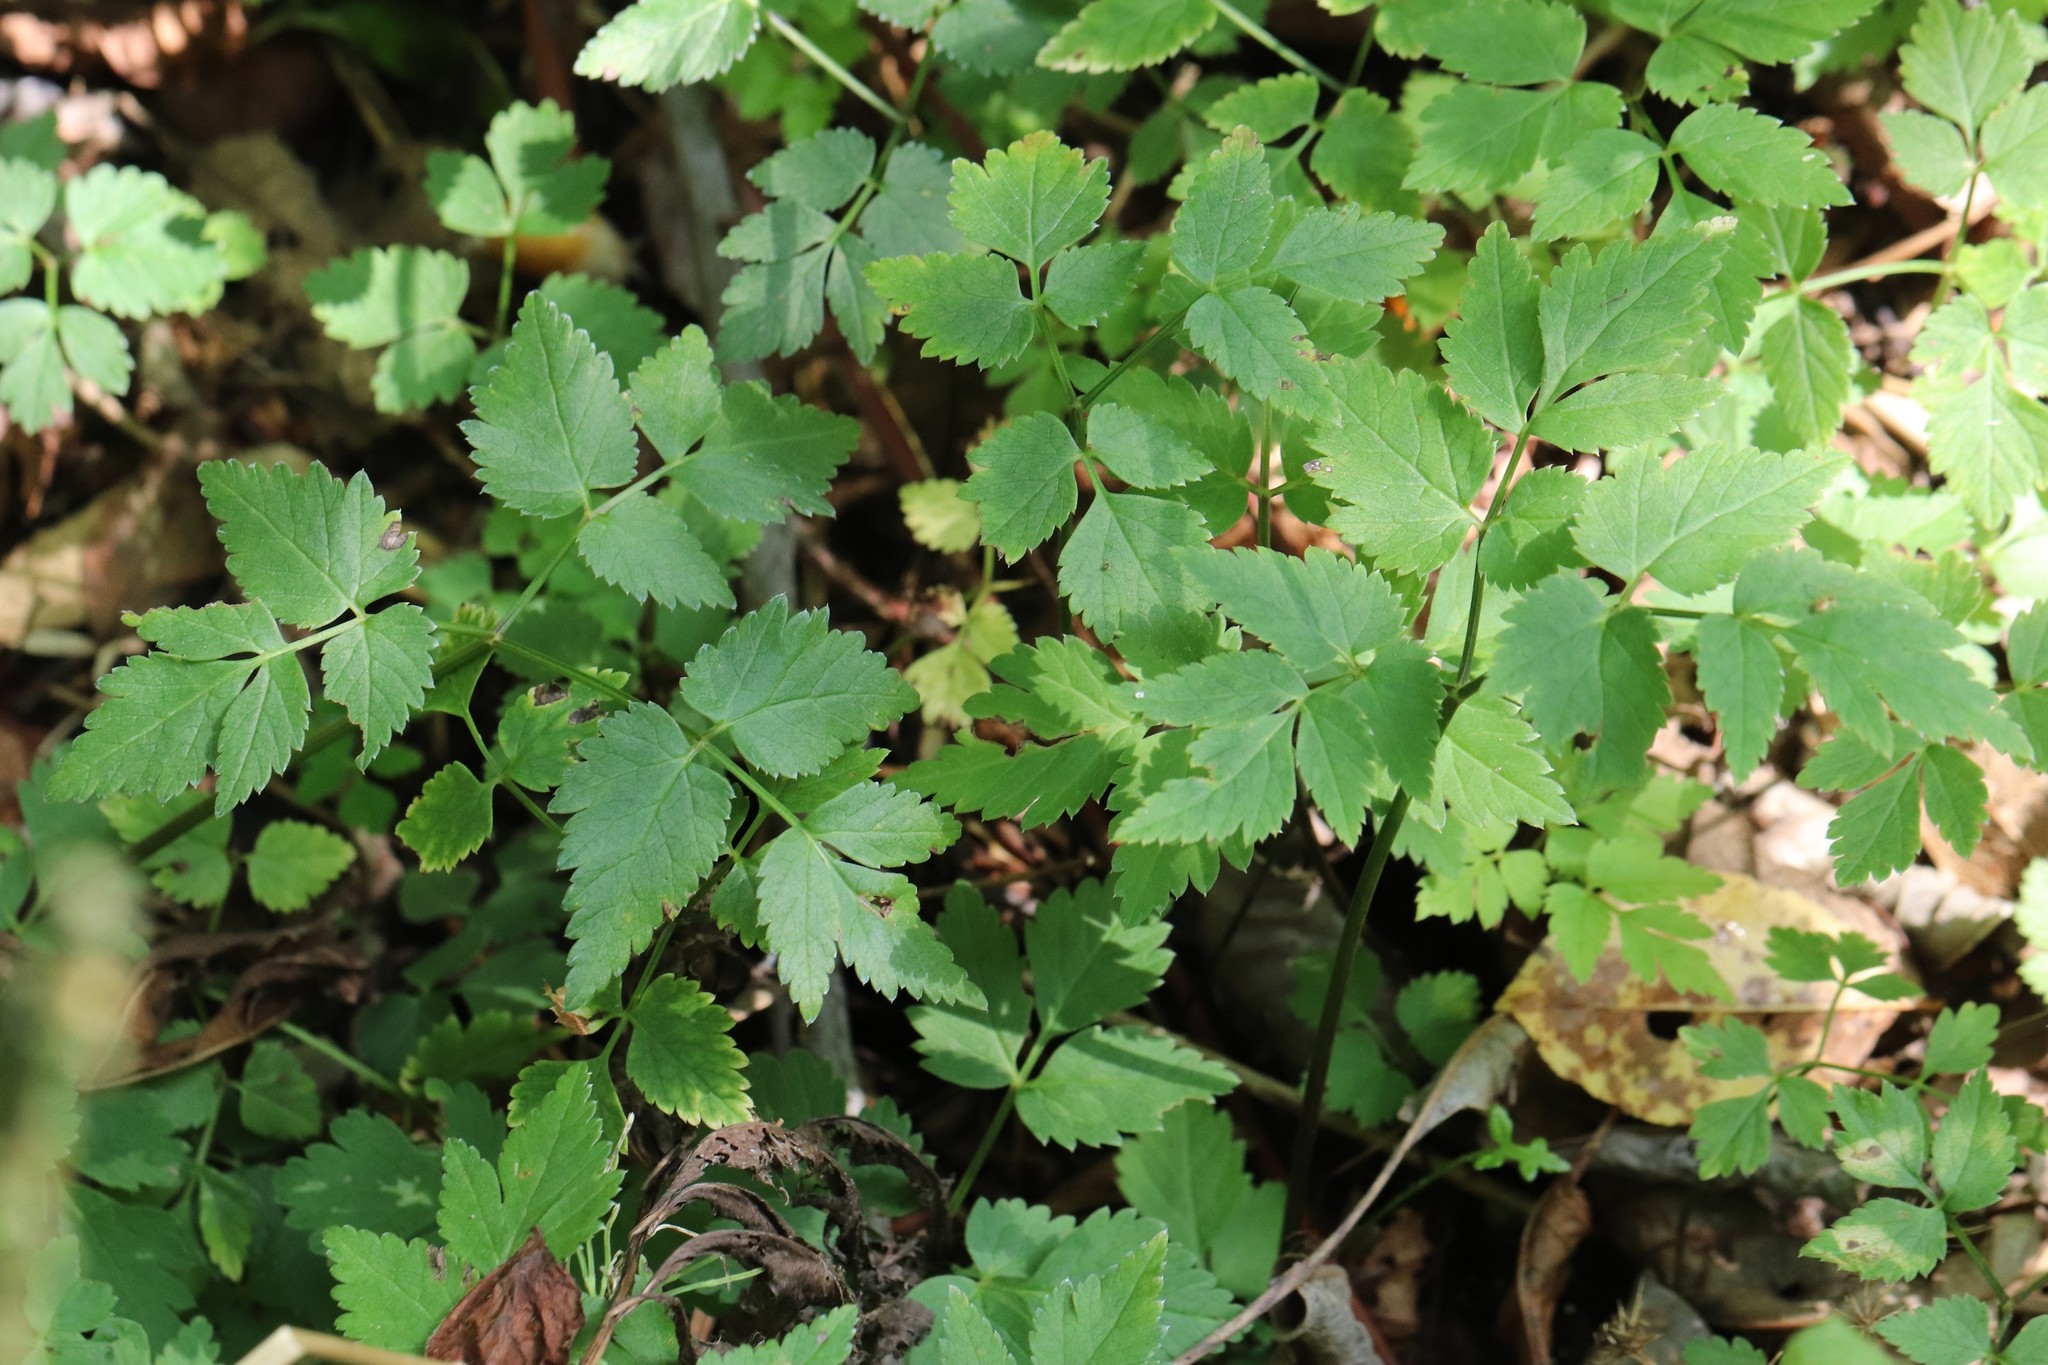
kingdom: Plantae
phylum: Tracheophyta
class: Magnoliopsida
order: Apiales
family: Apiaceae
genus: Aegopodium
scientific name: Aegopodium alpestre
